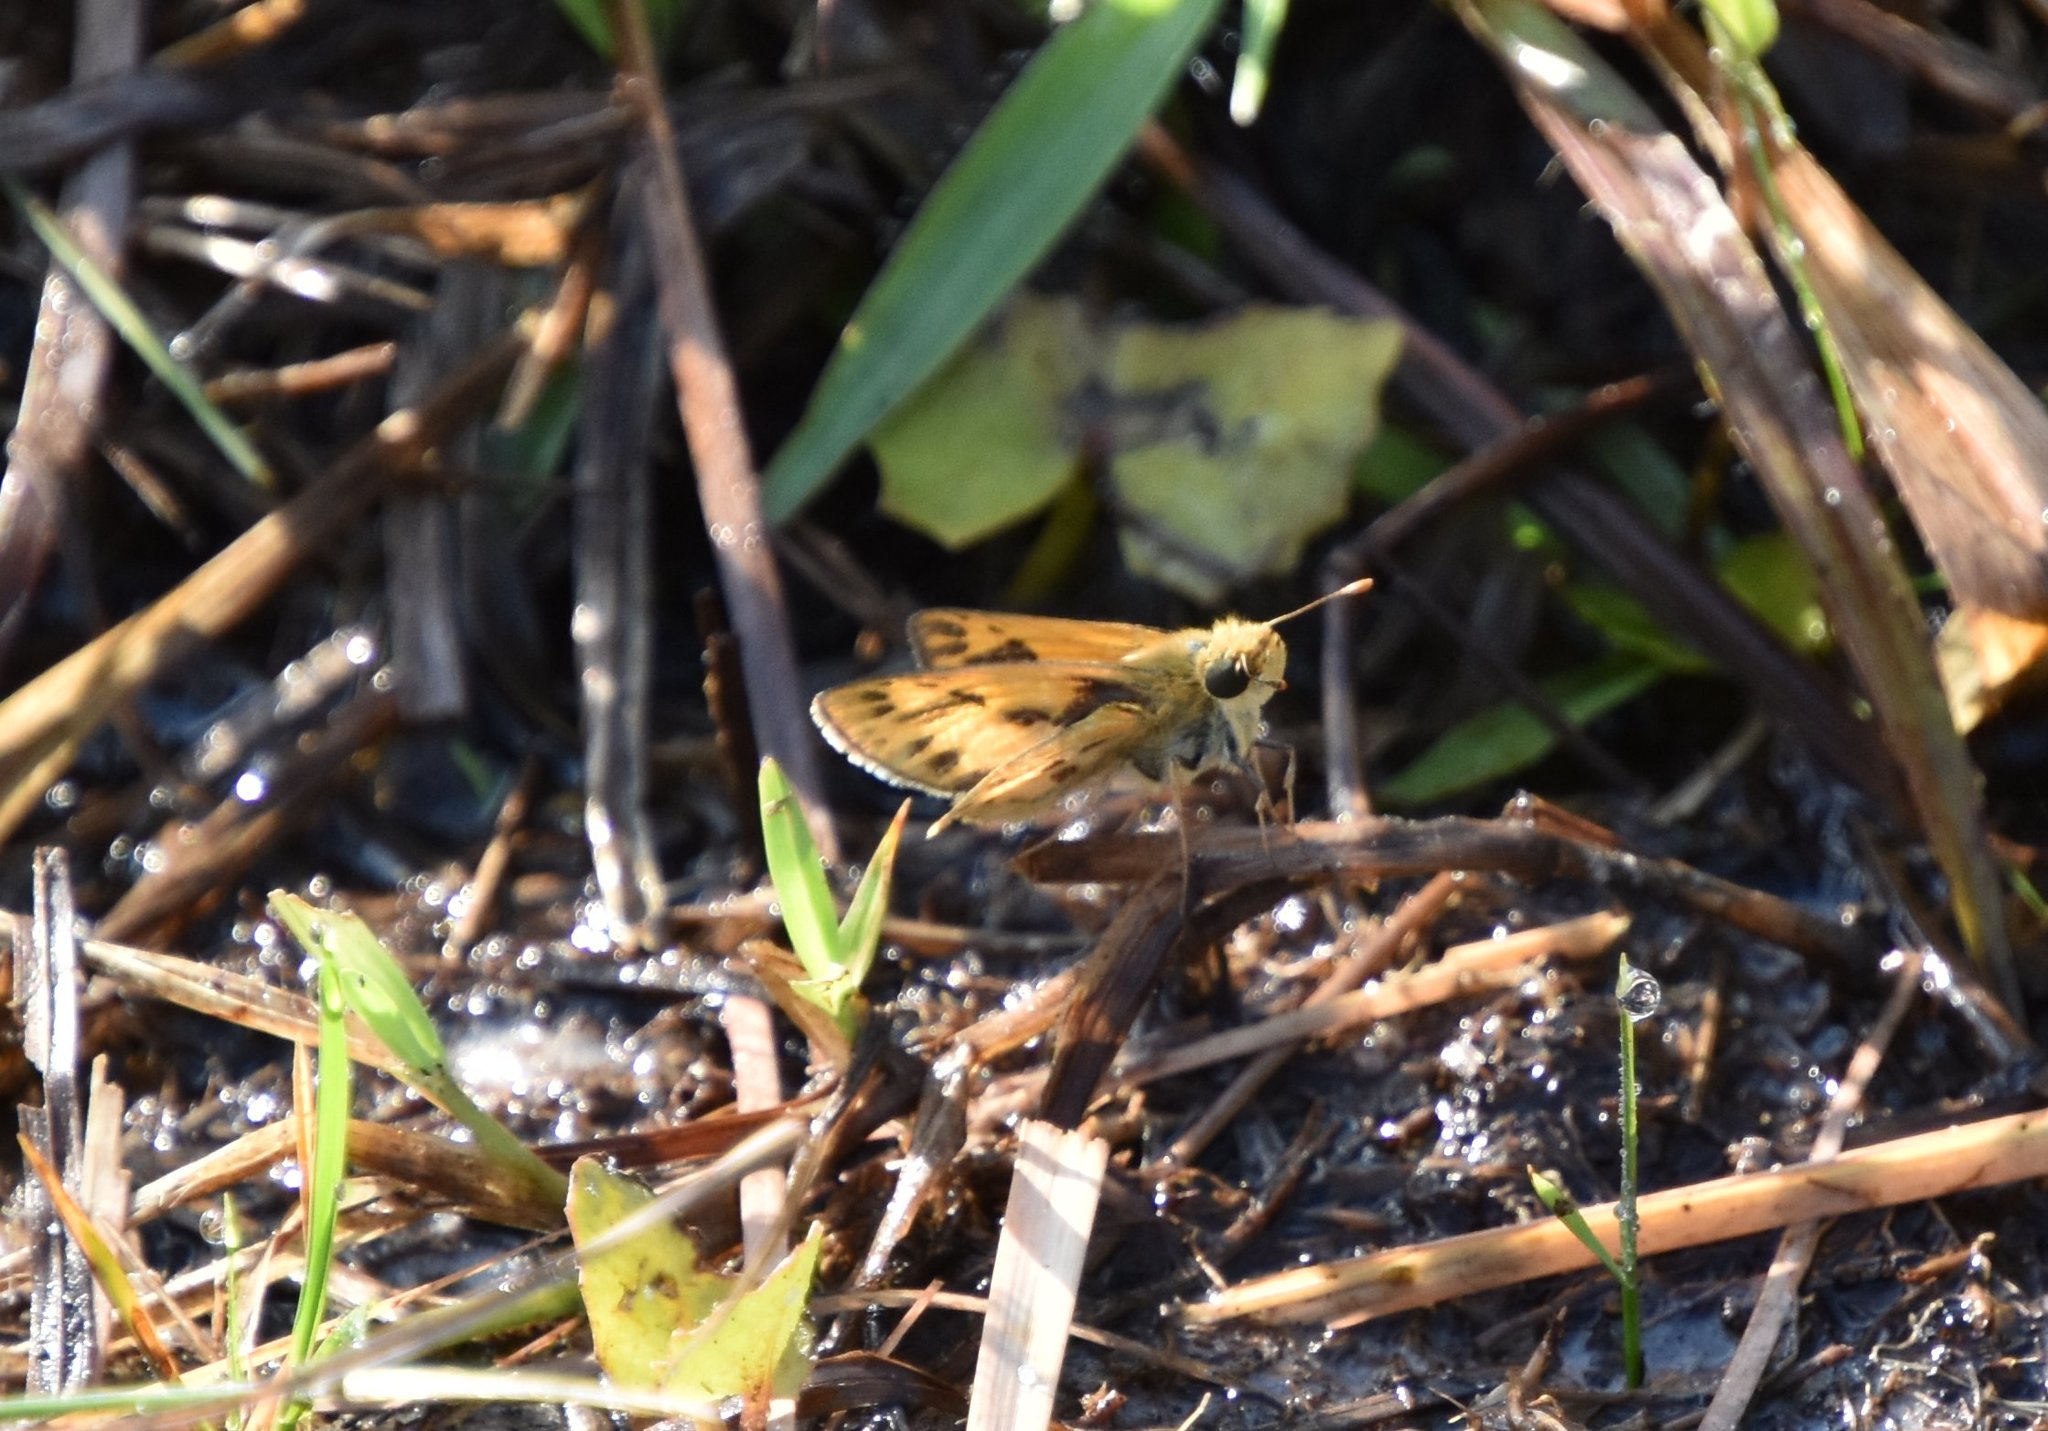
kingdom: Animalia
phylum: Arthropoda
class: Insecta
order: Lepidoptera
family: Hesperiidae
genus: Hylephila
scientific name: Hylephila phyleus
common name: Fiery skipper
